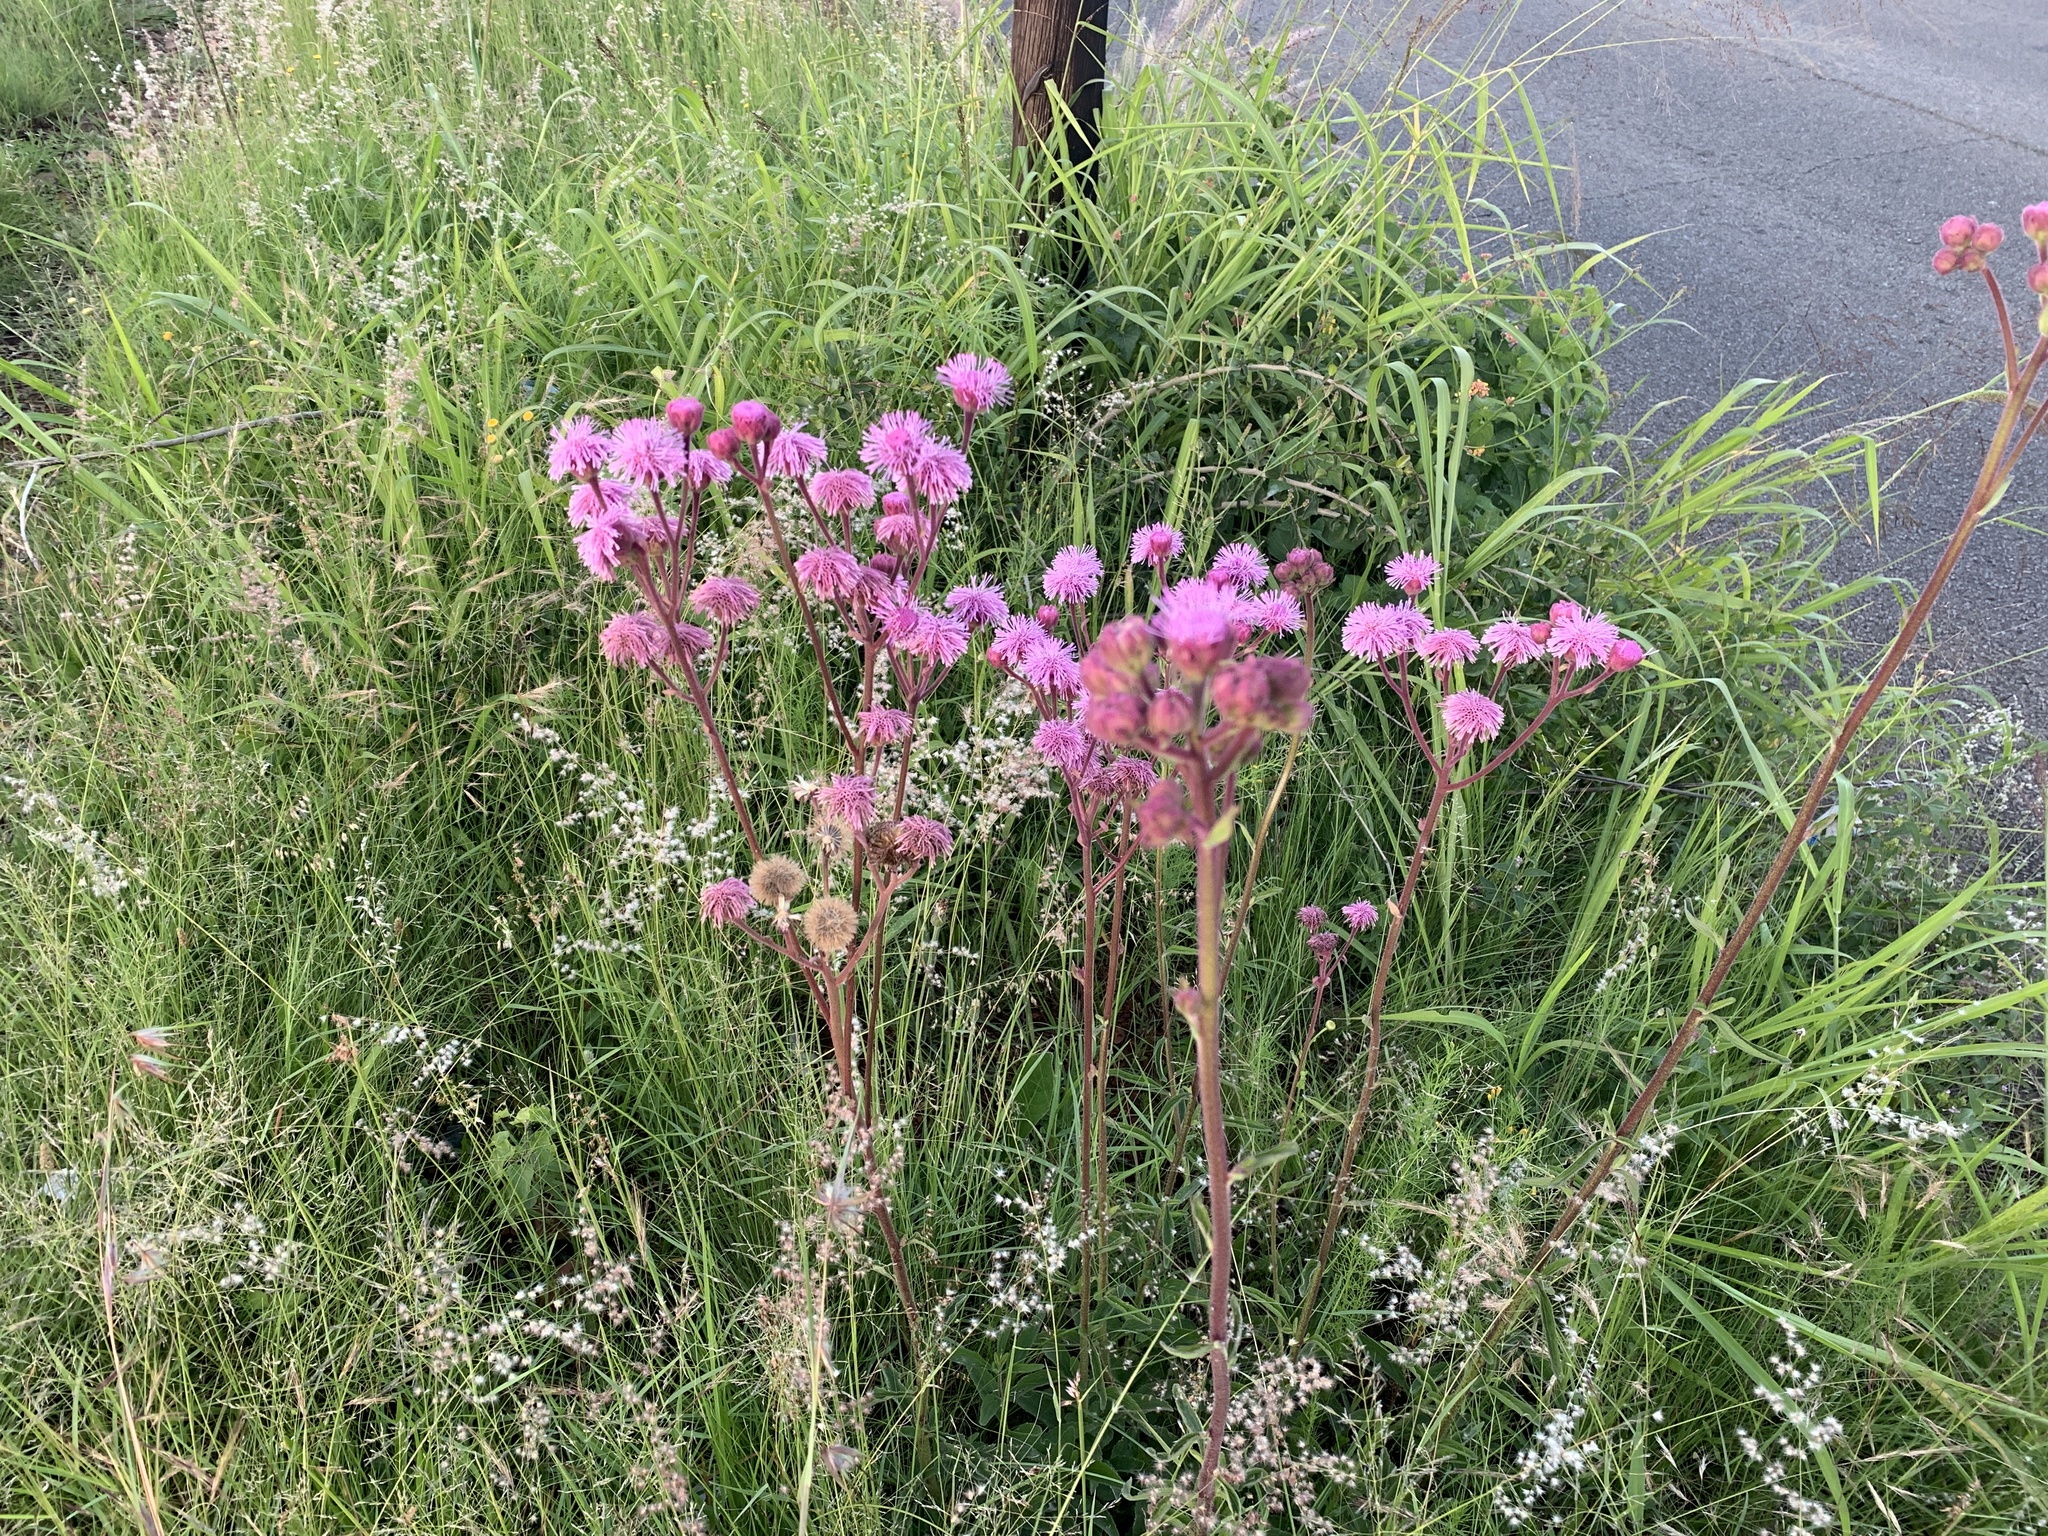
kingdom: Plantae
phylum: Tracheophyta
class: Magnoliopsida
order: Asterales
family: Asteraceae
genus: Campuloclinium
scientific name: Campuloclinium macrocephalum
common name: Pompomweed
